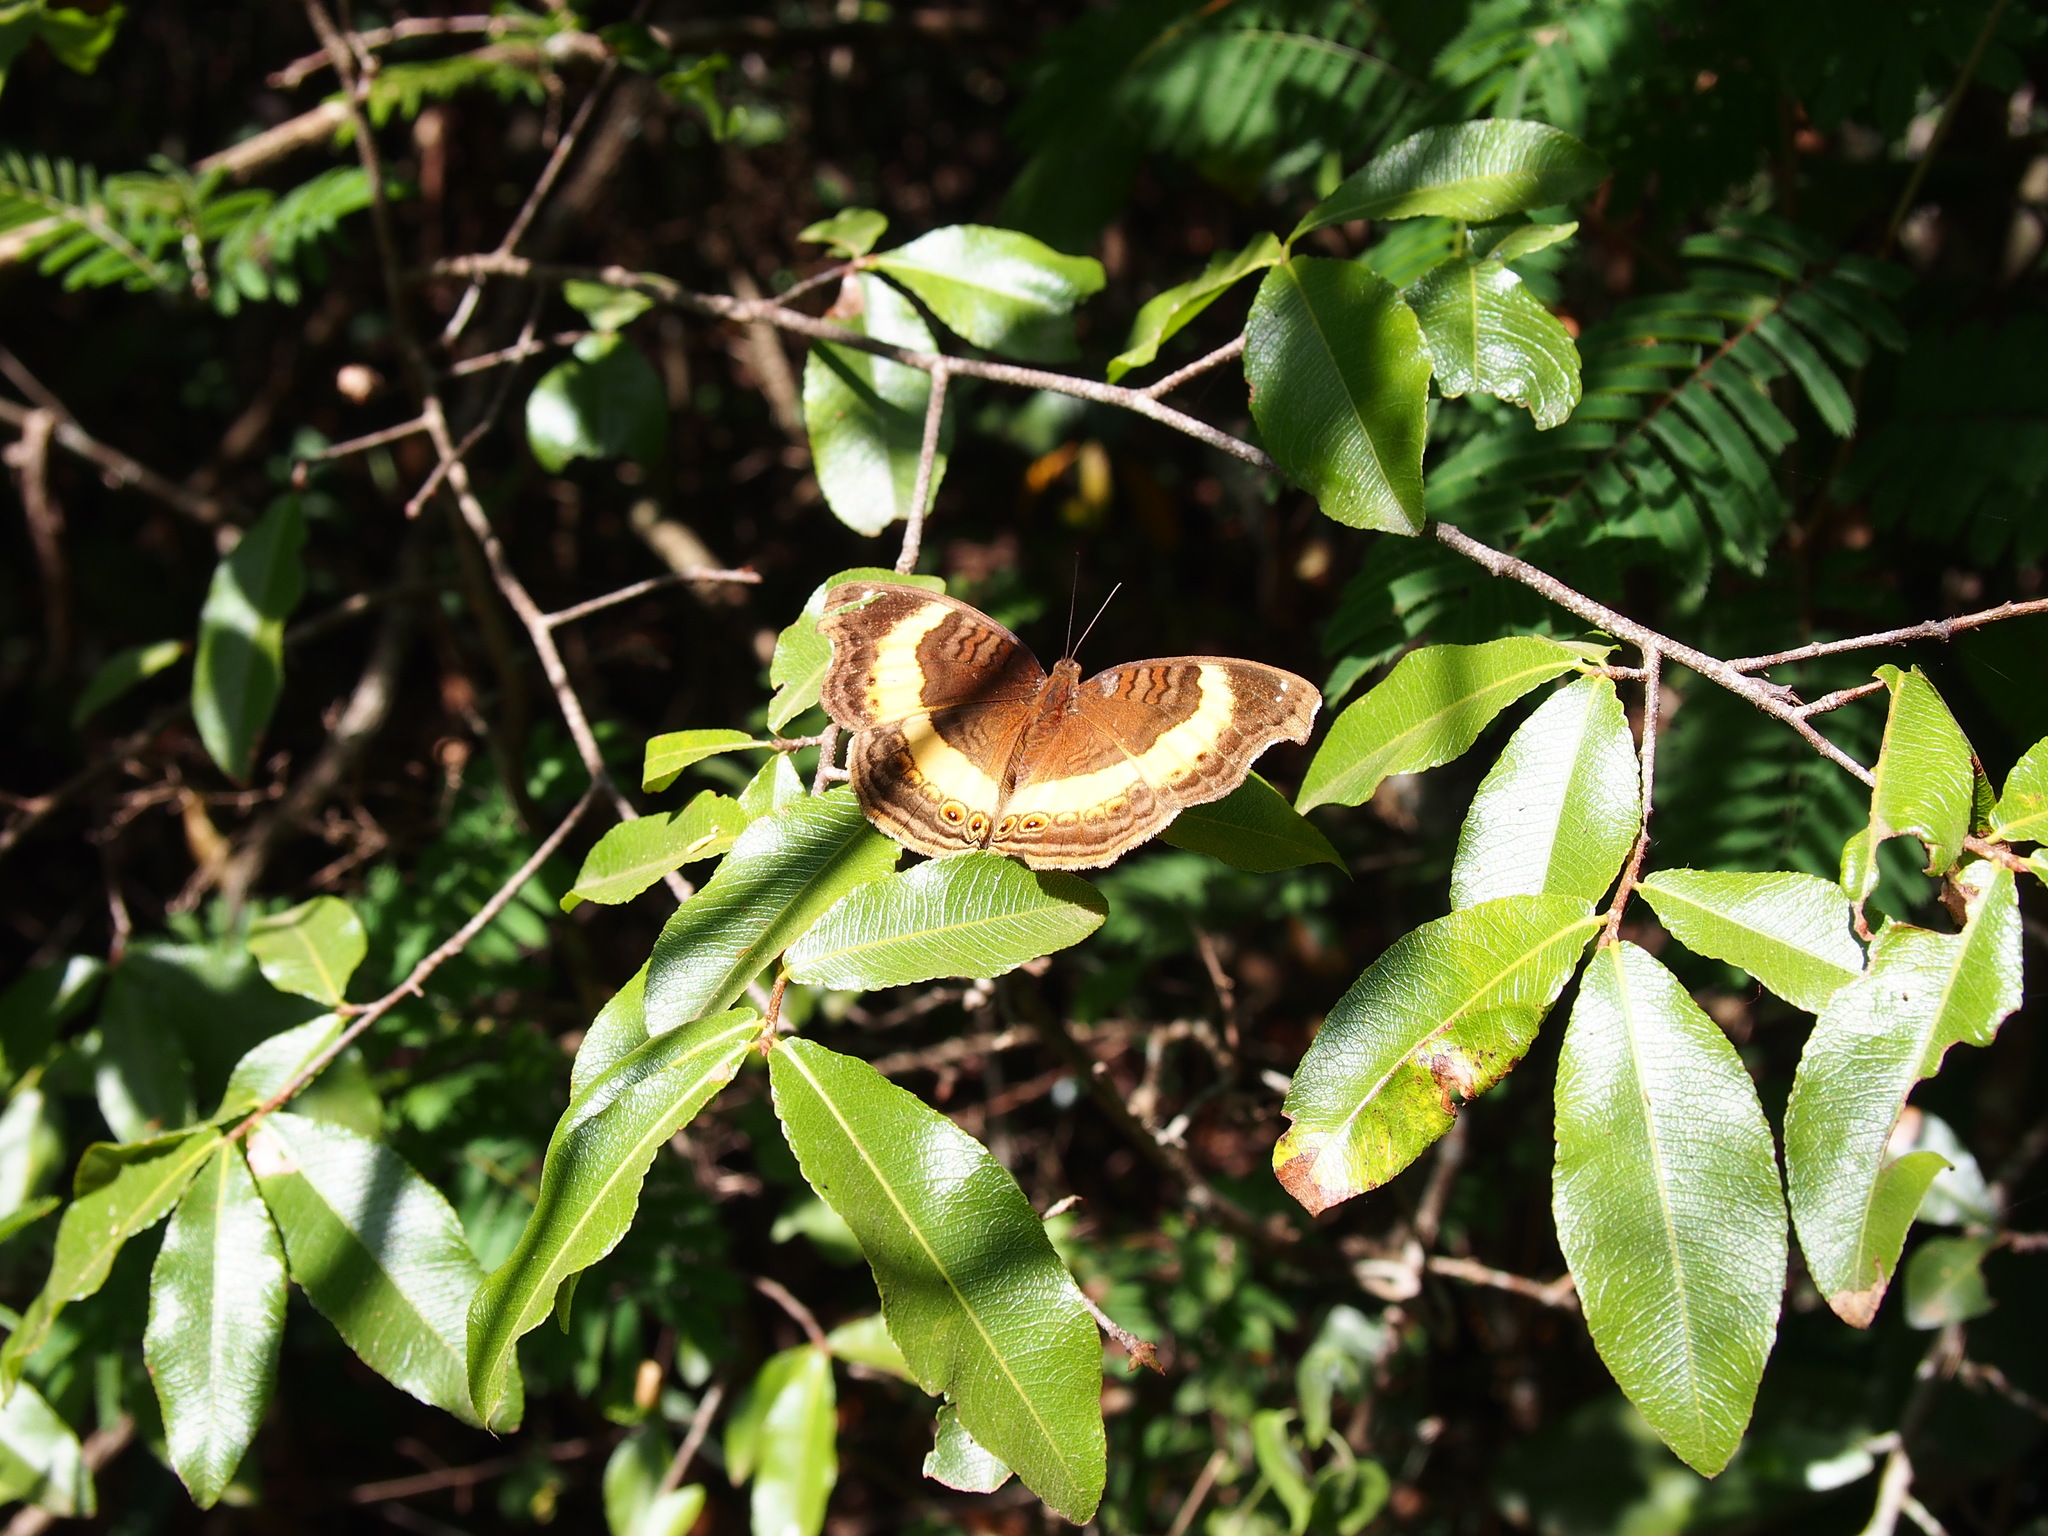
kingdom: Animalia
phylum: Arthropoda
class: Insecta
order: Lepidoptera
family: Nymphalidae
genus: Junonia
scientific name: Junonia terea
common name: Soldier pansy
